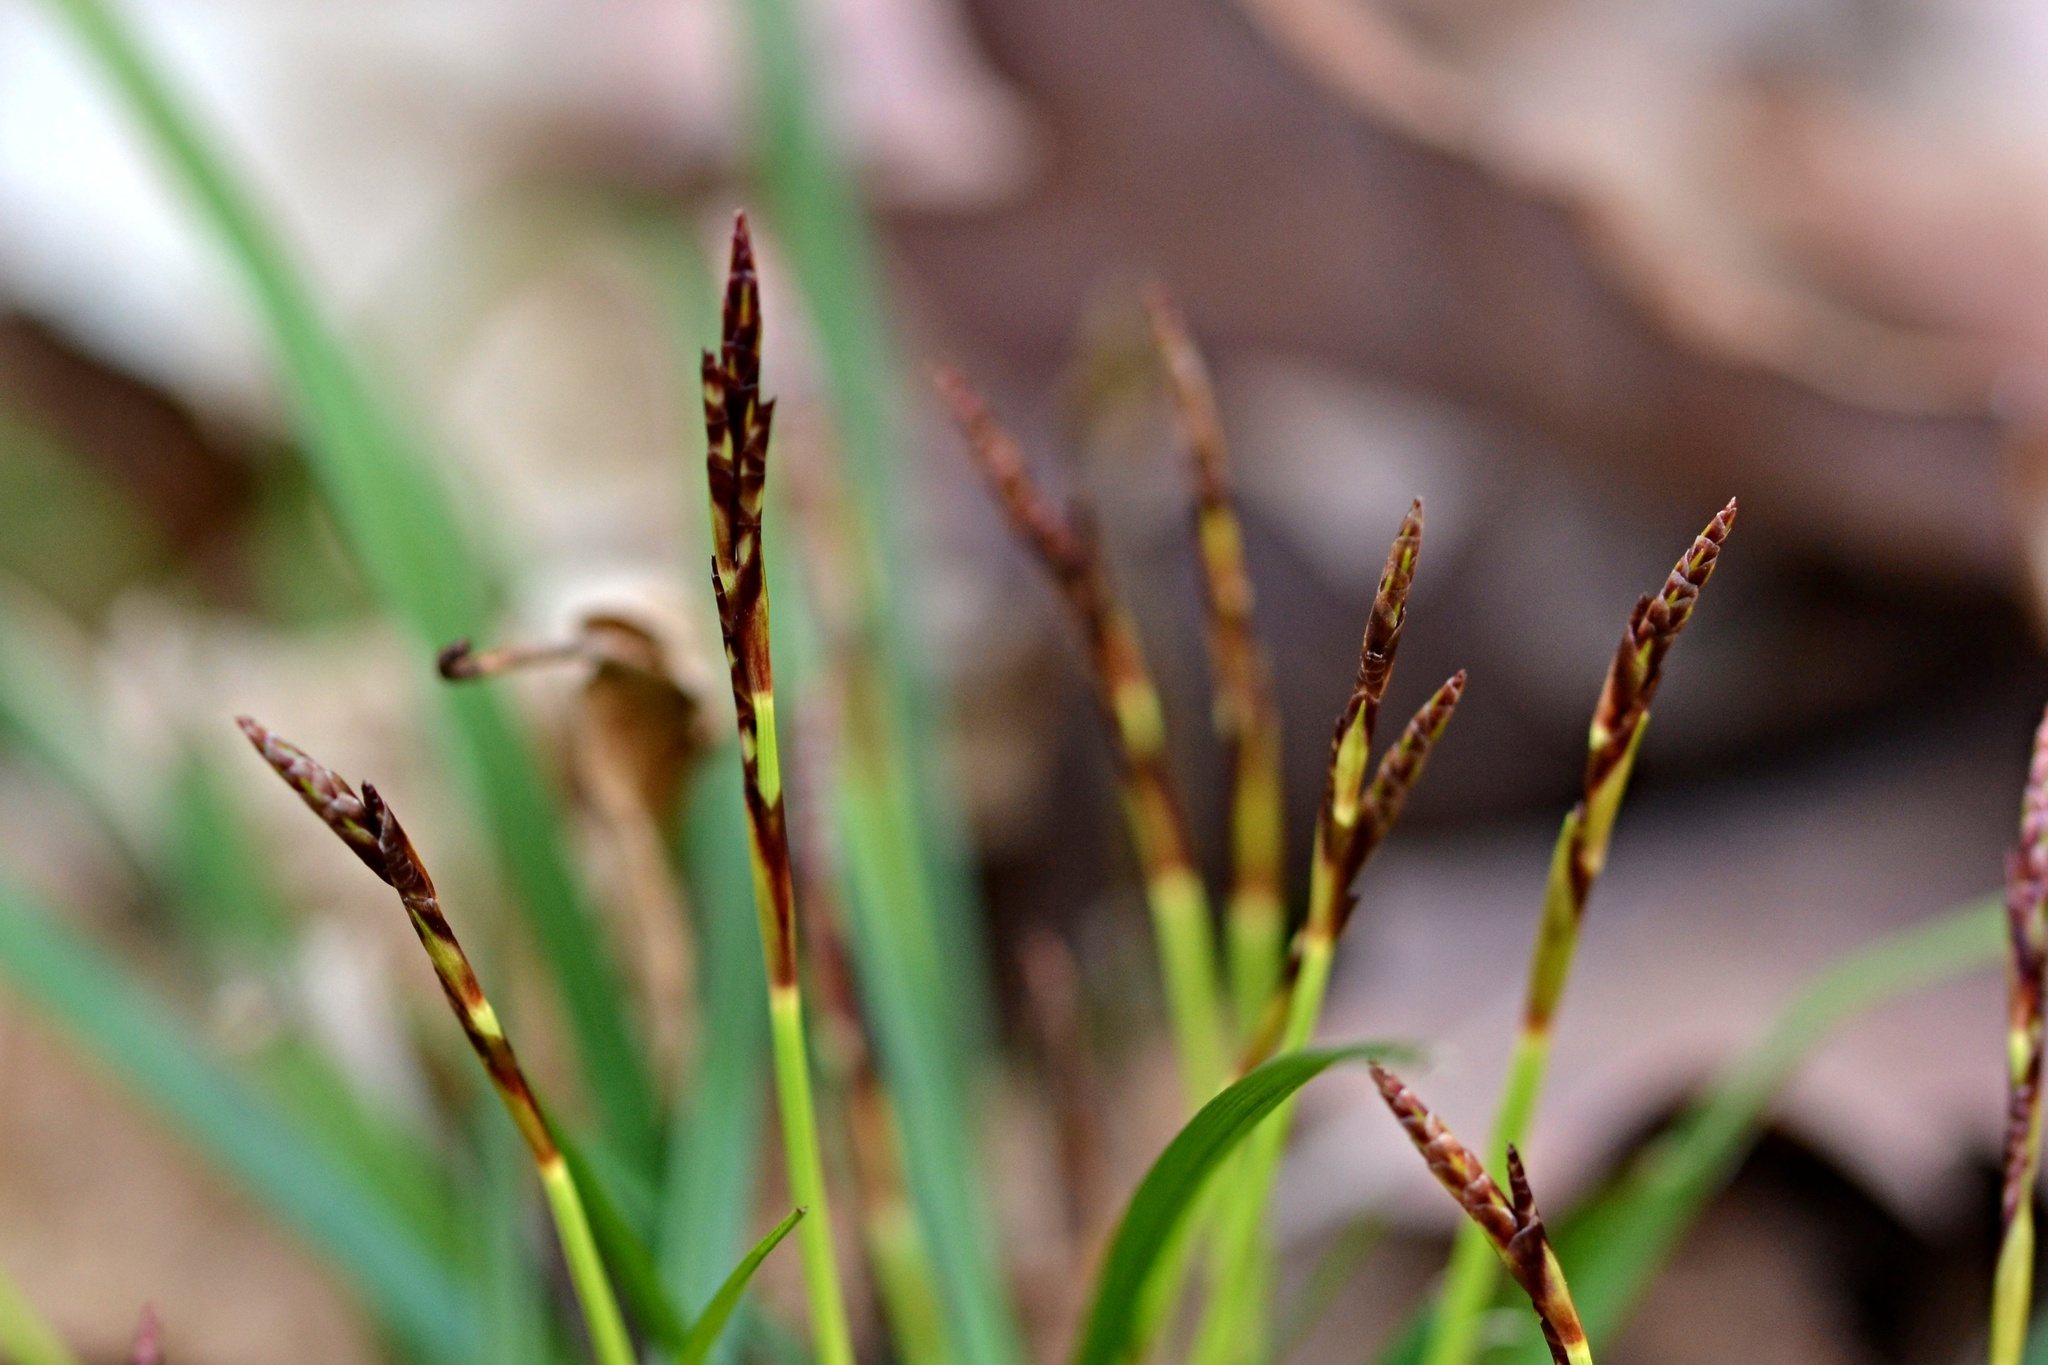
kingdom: Plantae
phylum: Tracheophyta
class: Liliopsida
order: Poales
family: Cyperaceae
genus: Carex
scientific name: Carex digitata
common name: Fingered sedge
